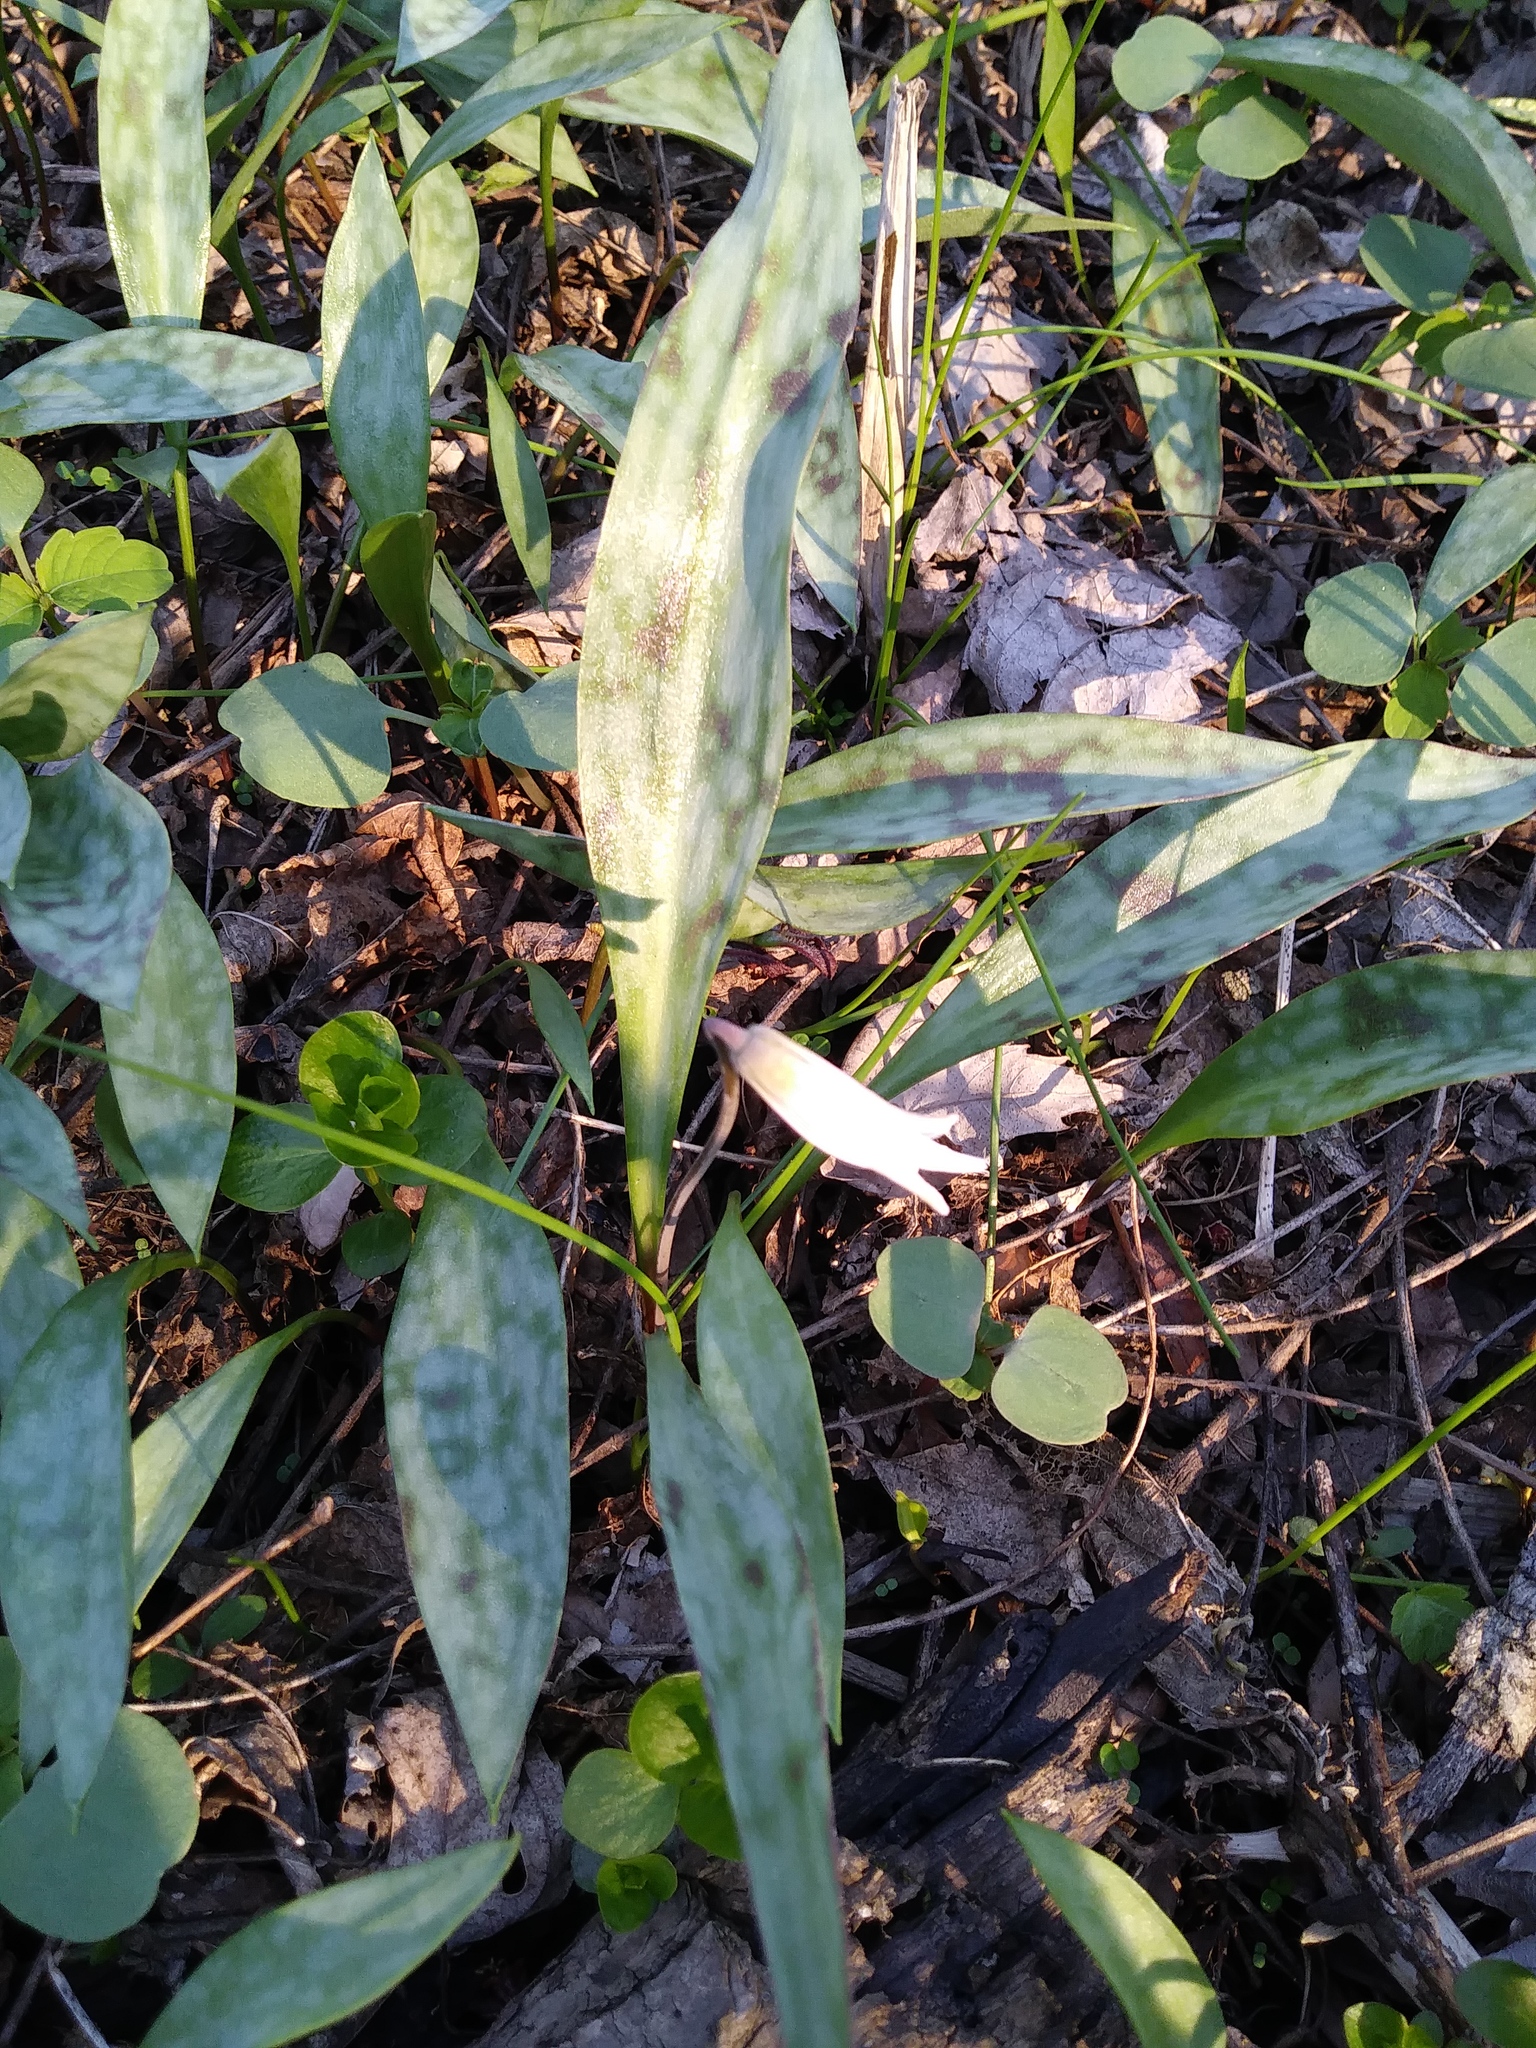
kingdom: Plantae
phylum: Tracheophyta
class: Liliopsida
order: Liliales
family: Liliaceae
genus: Erythronium
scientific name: Erythronium albidum
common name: White trout-lily
